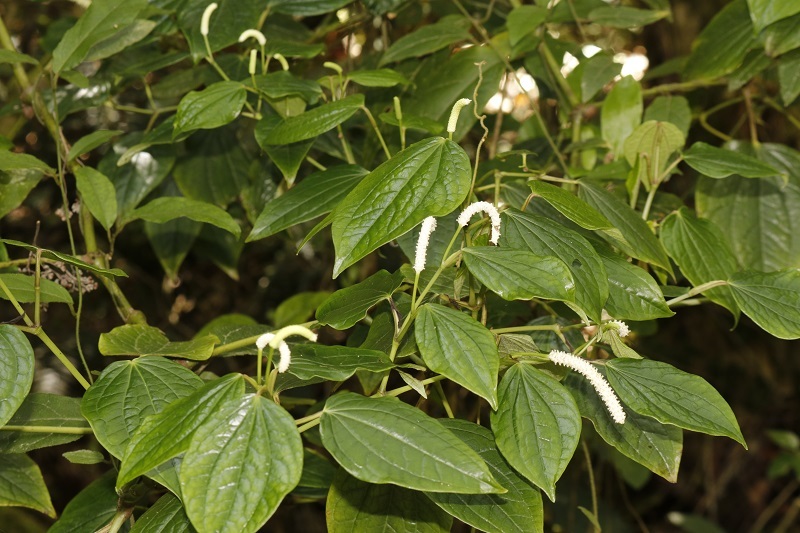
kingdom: Plantae
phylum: Tracheophyta
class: Magnoliopsida
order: Piperales
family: Piperaceae
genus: Piper
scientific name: Piper capense
